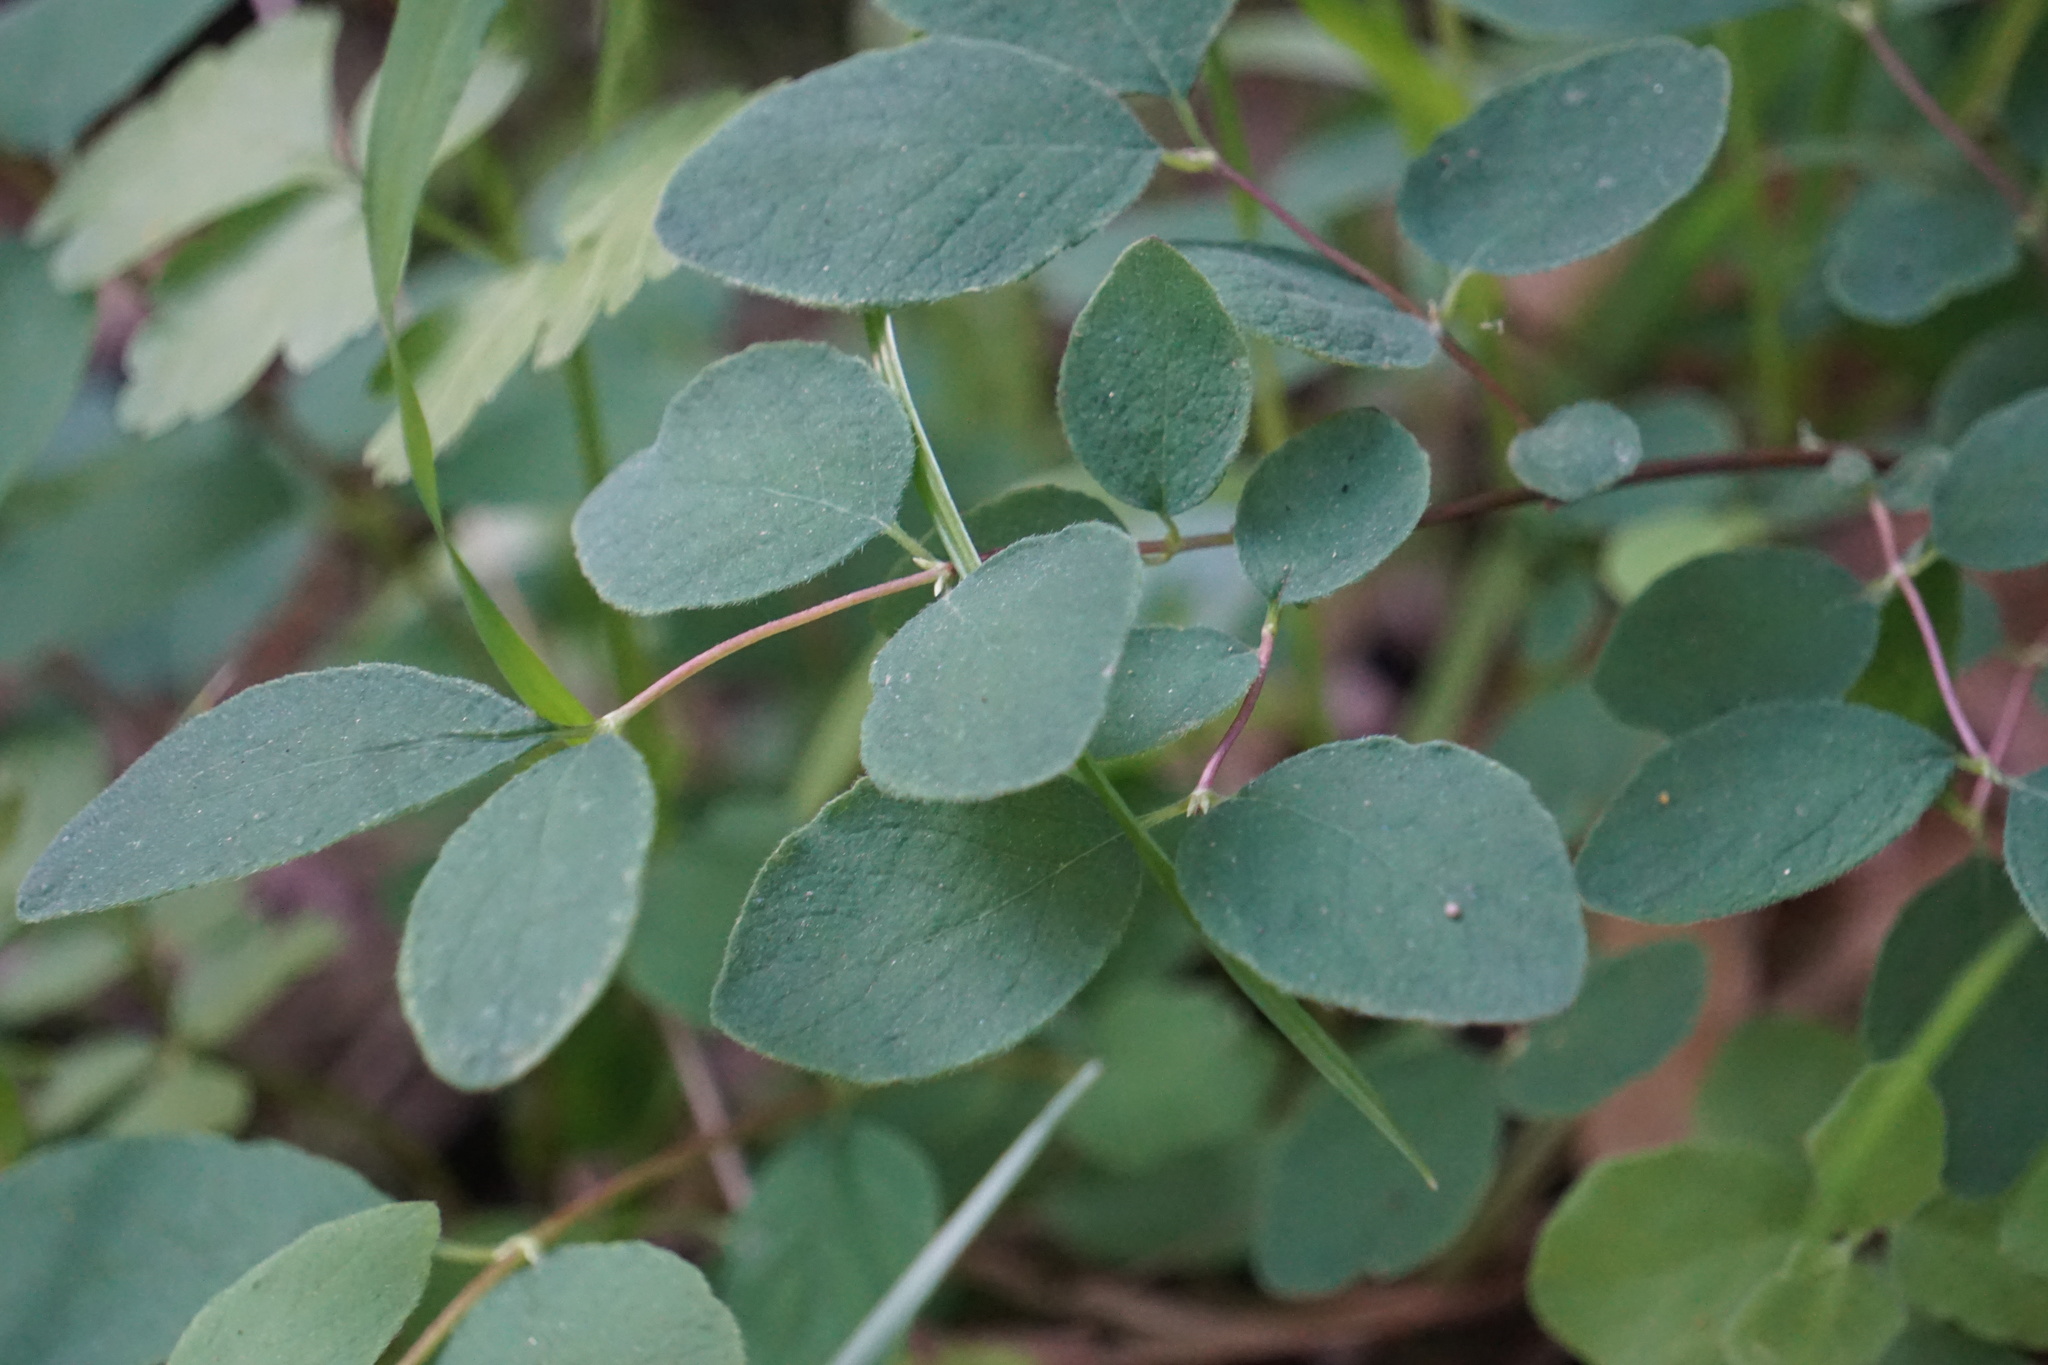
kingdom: Plantae
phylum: Tracheophyta
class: Magnoliopsida
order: Dipsacales
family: Caprifoliaceae
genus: Symphoricarpos
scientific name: Symphoricarpos albus
